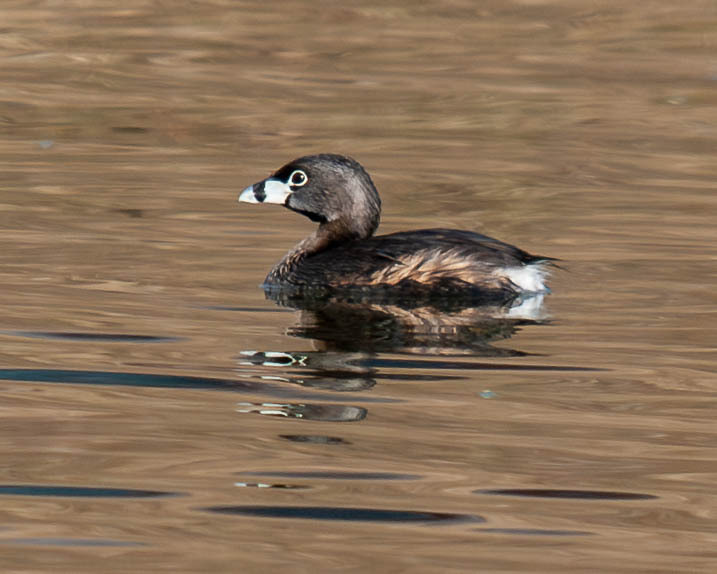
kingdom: Animalia
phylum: Chordata
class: Aves
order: Podicipediformes
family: Podicipedidae
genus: Podilymbus
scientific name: Podilymbus podiceps
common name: Pied-billed grebe
